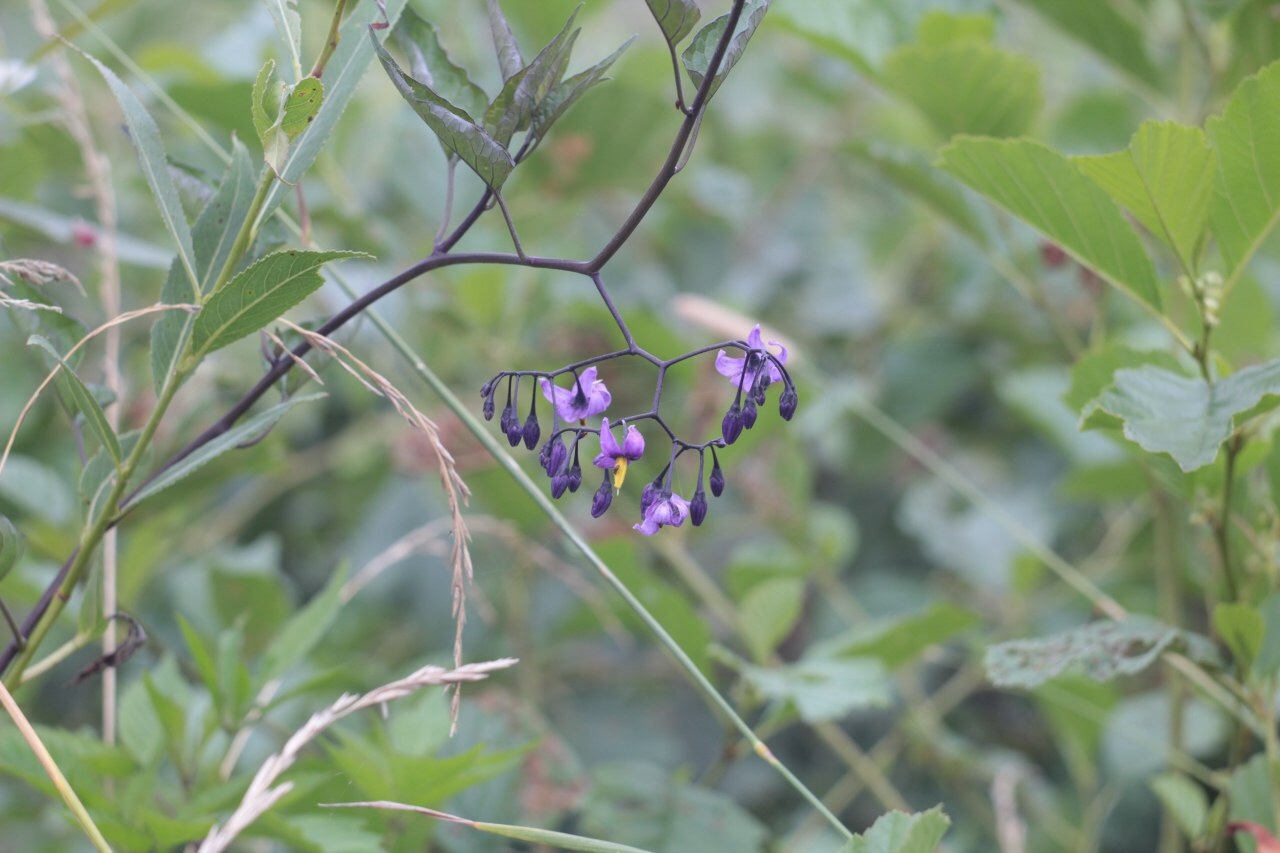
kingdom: Plantae
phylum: Tracheophyta
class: Magnoliopsida
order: Solanales
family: Solanaceae
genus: Solanum
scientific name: Solanum dulcamara
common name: Climbing nightshade
